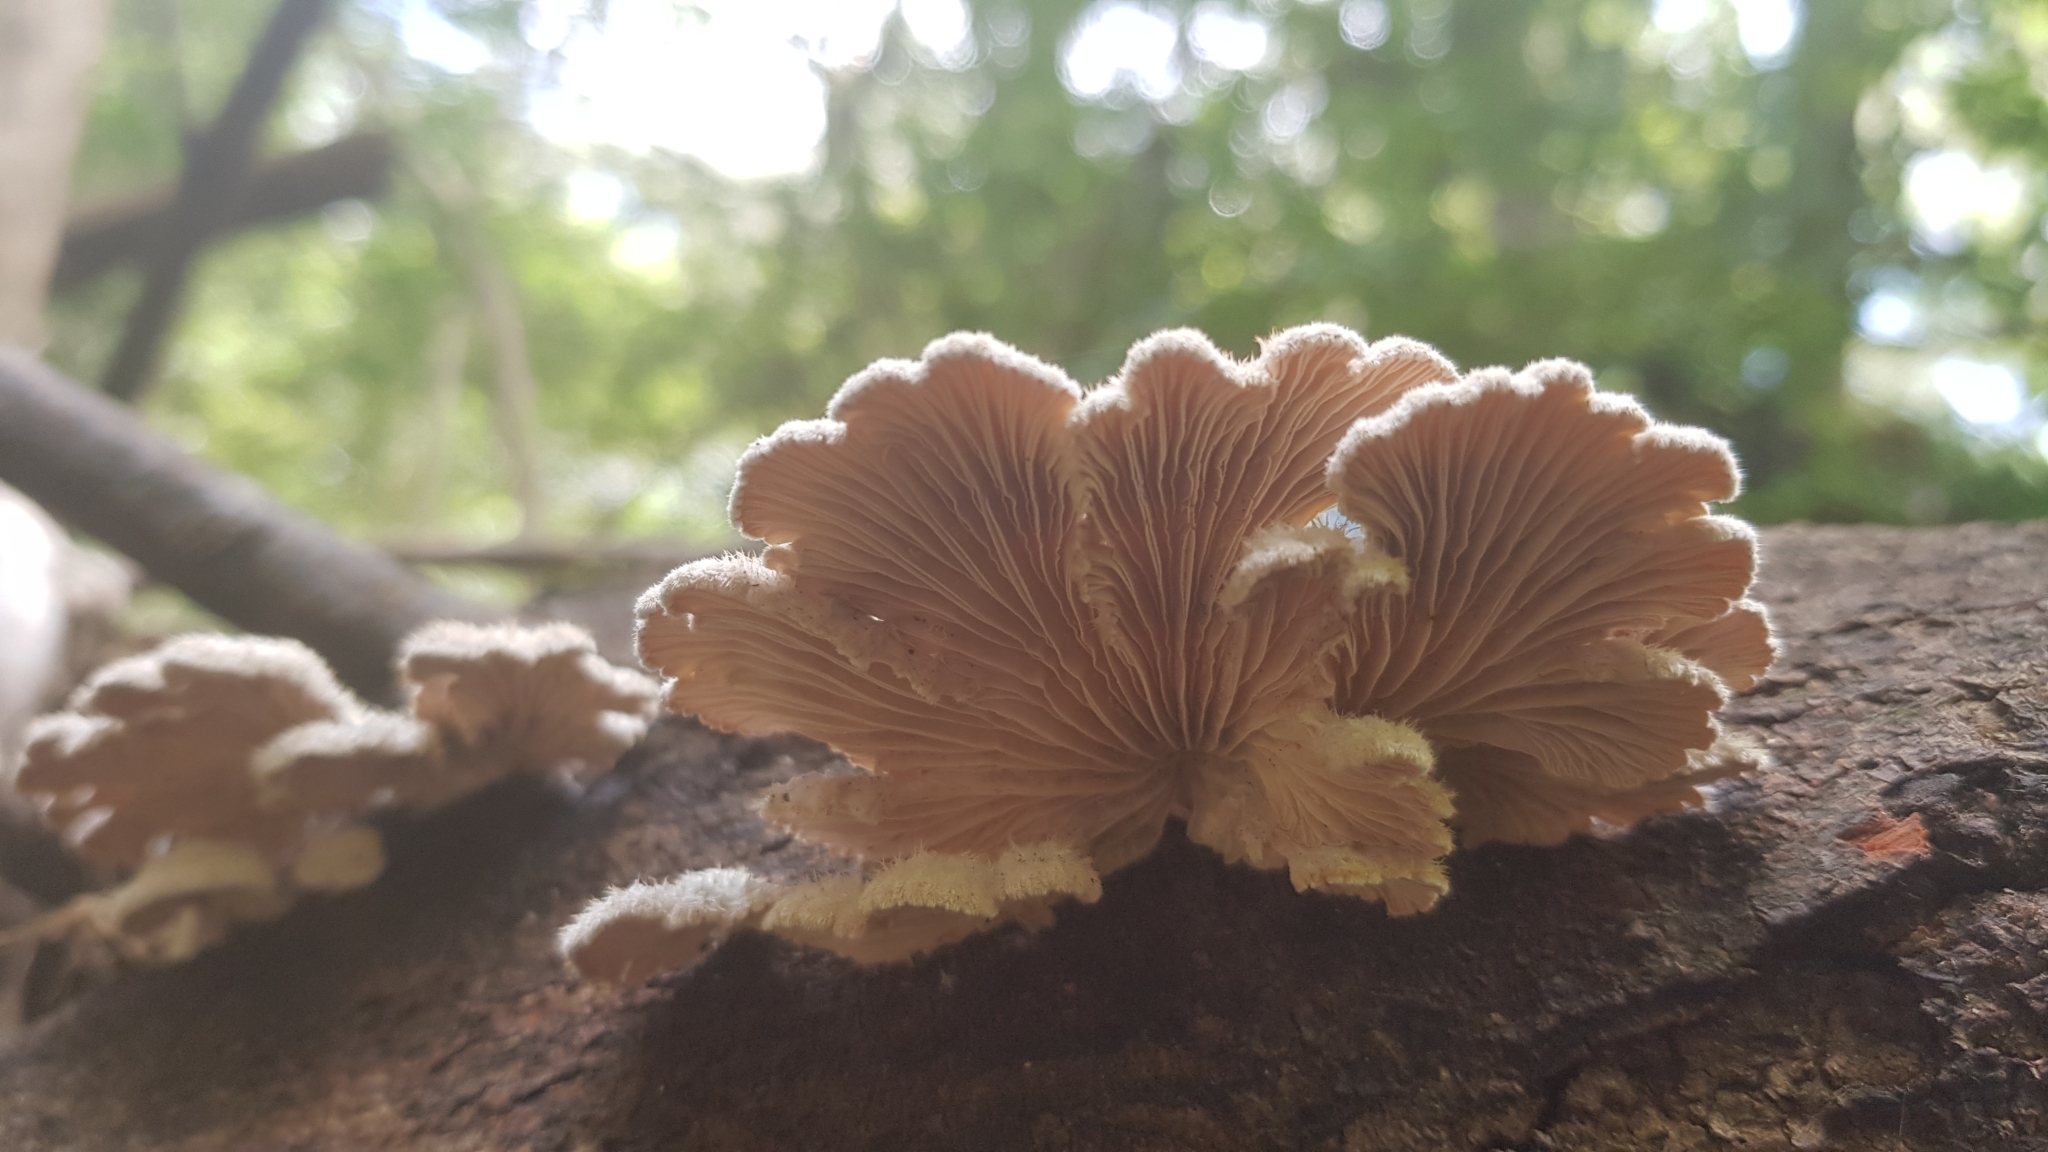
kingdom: Fungi
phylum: Basidiomycota
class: Agaricomycetes
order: Agaricales
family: Schizophyllaceae
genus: Schizophyllum
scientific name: Schizophyllum commune
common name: Common porecrust
